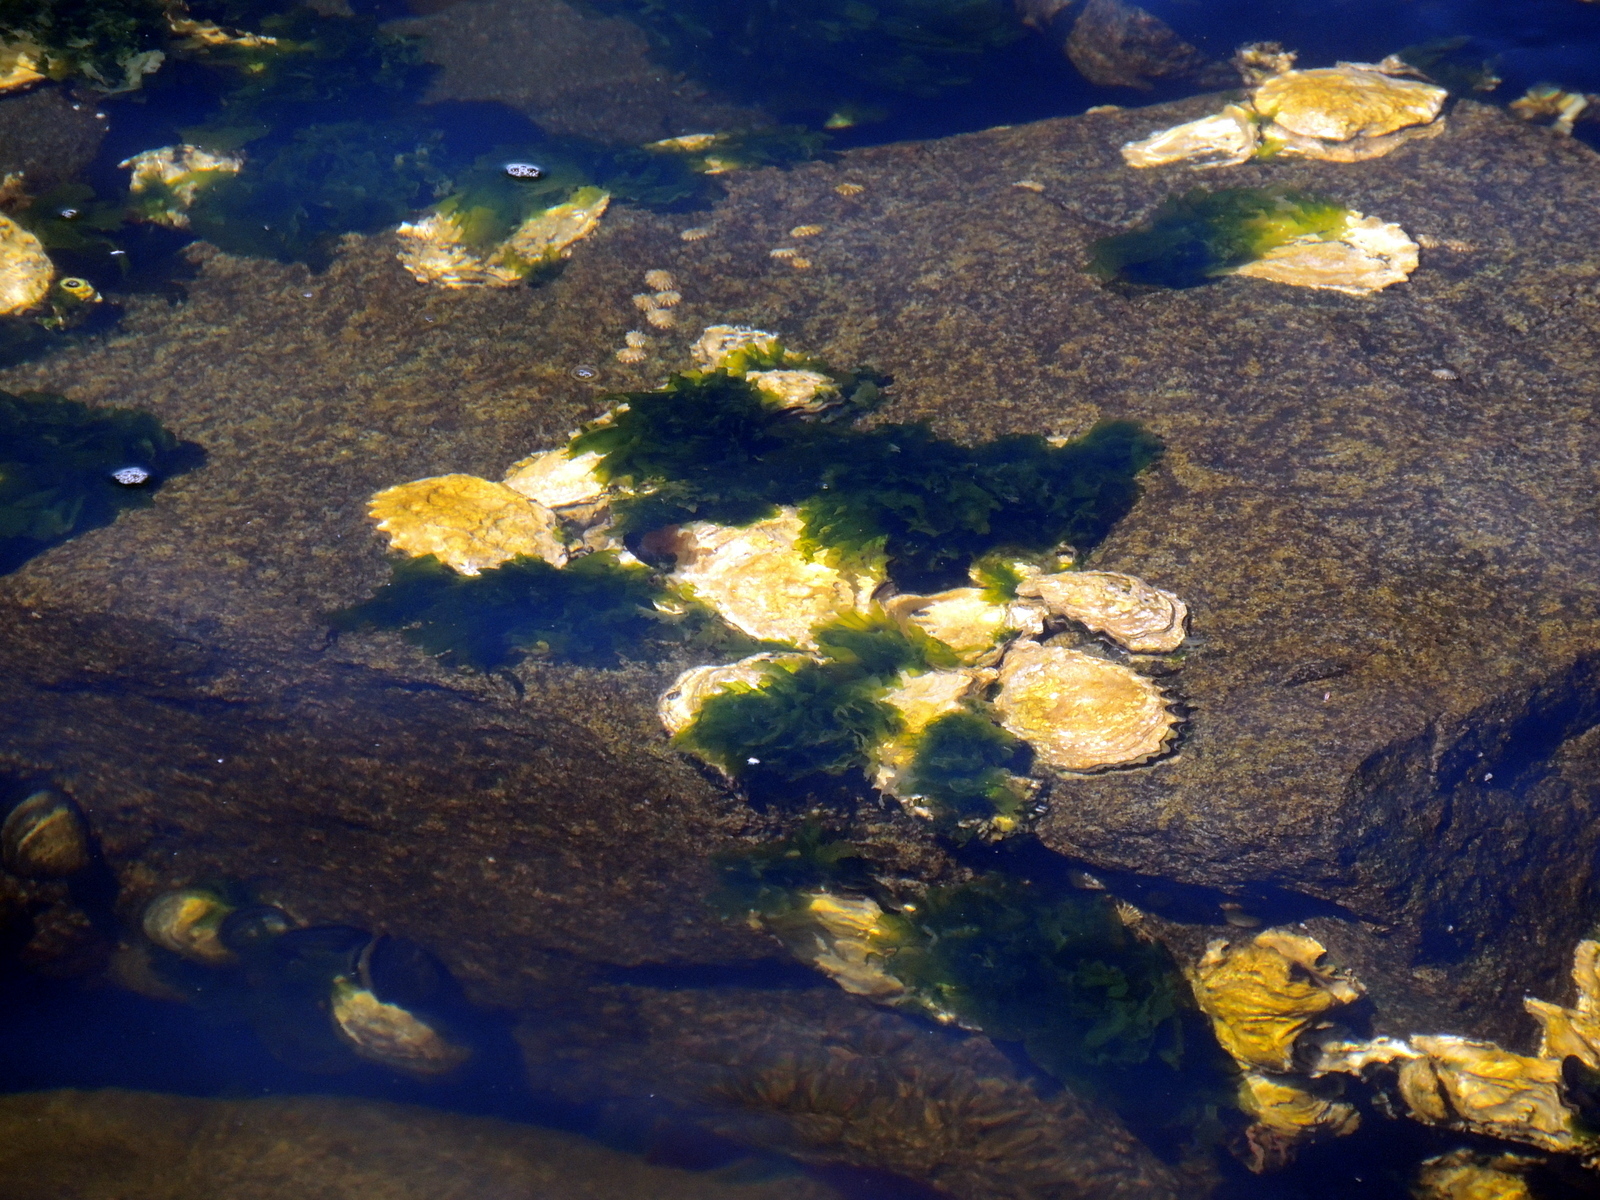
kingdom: Animalia
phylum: Mollusca
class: Bivalvia
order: Ostreida
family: Ostreidae
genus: Magallana
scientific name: Magallana gigas
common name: Pacific oyster
